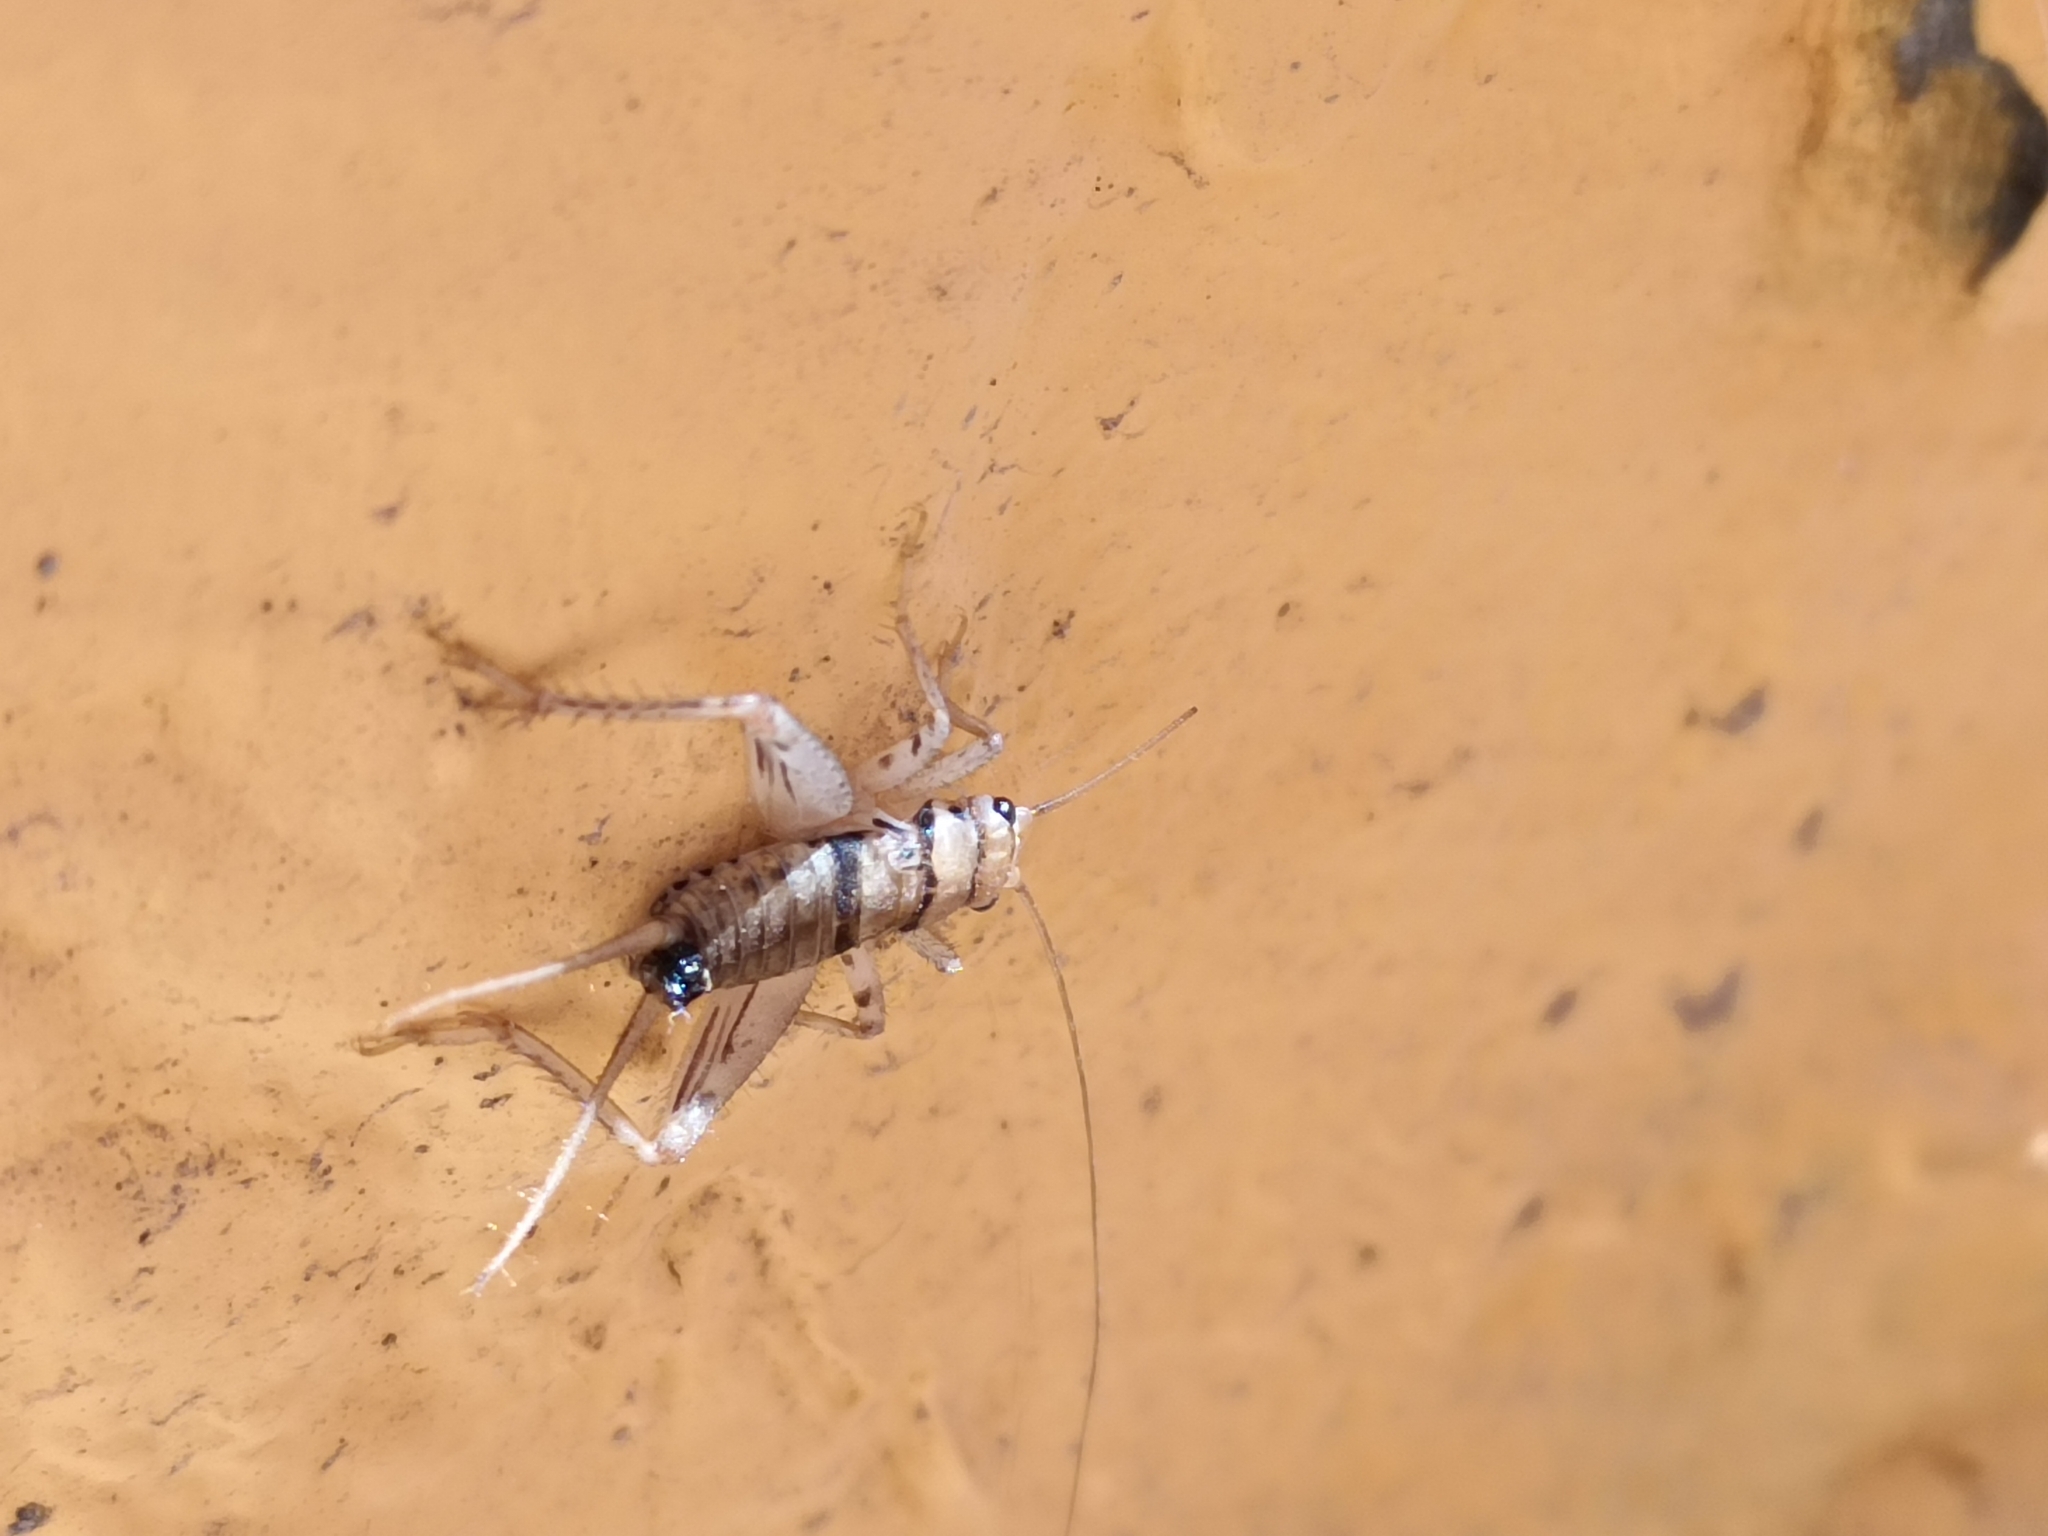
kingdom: Animalia
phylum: Arthropoda
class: Insecta
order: Orthoptera
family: Gryllidae
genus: Gryllodes
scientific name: Gryllodes sigillatus
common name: Tropical house cricket
